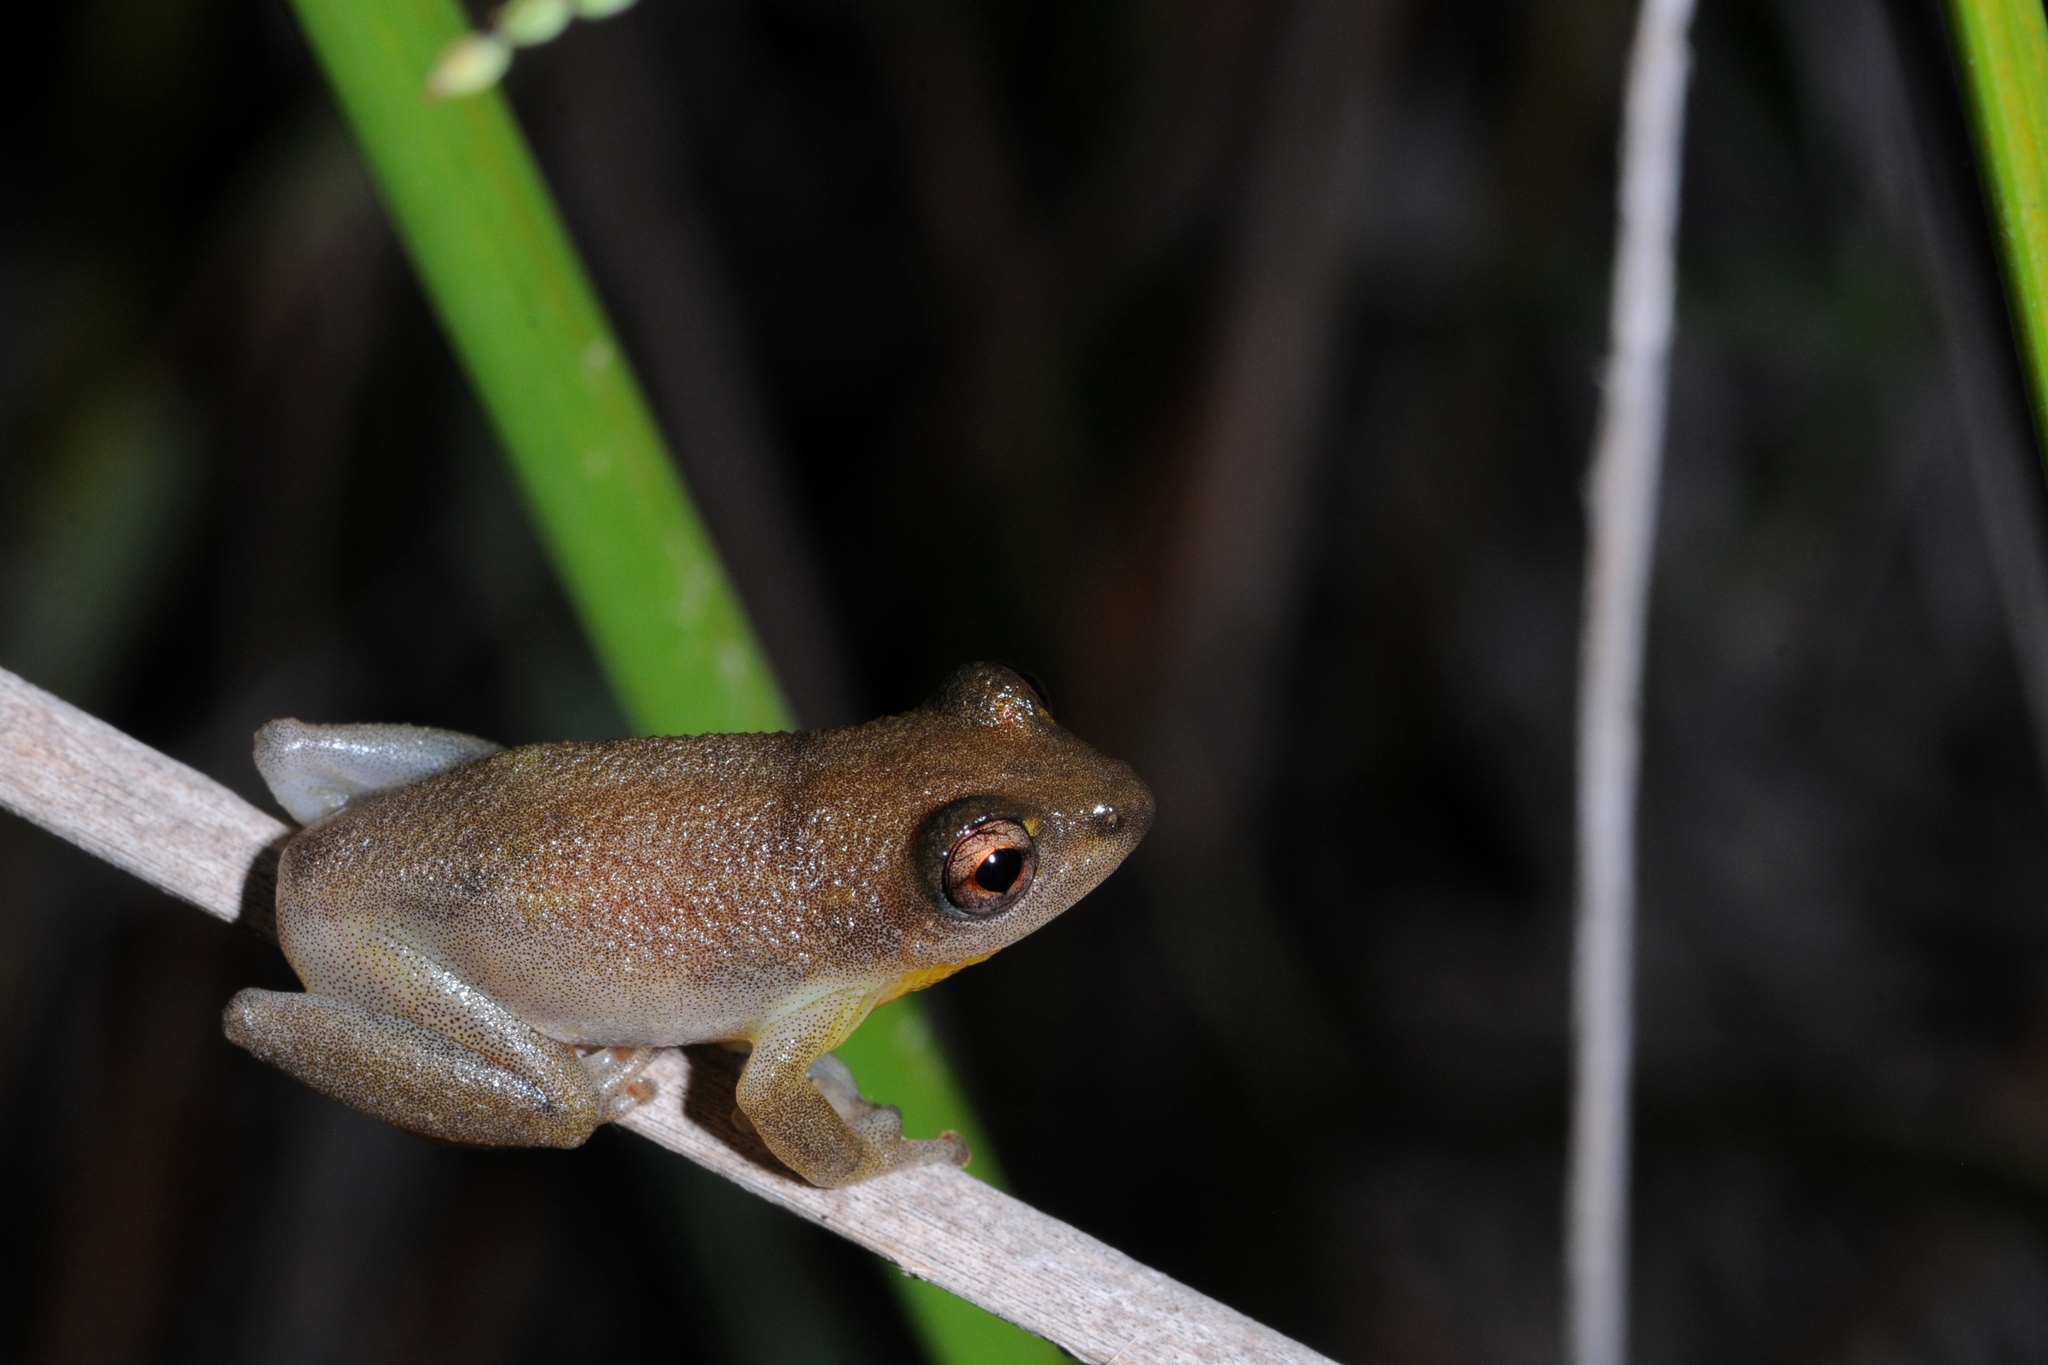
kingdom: Animalia
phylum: Chordata
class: Amphibia
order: Anura
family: Hyperoliidae
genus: Hyperolius
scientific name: Hyperolius stictus
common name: Yellow-spotted reed frog
